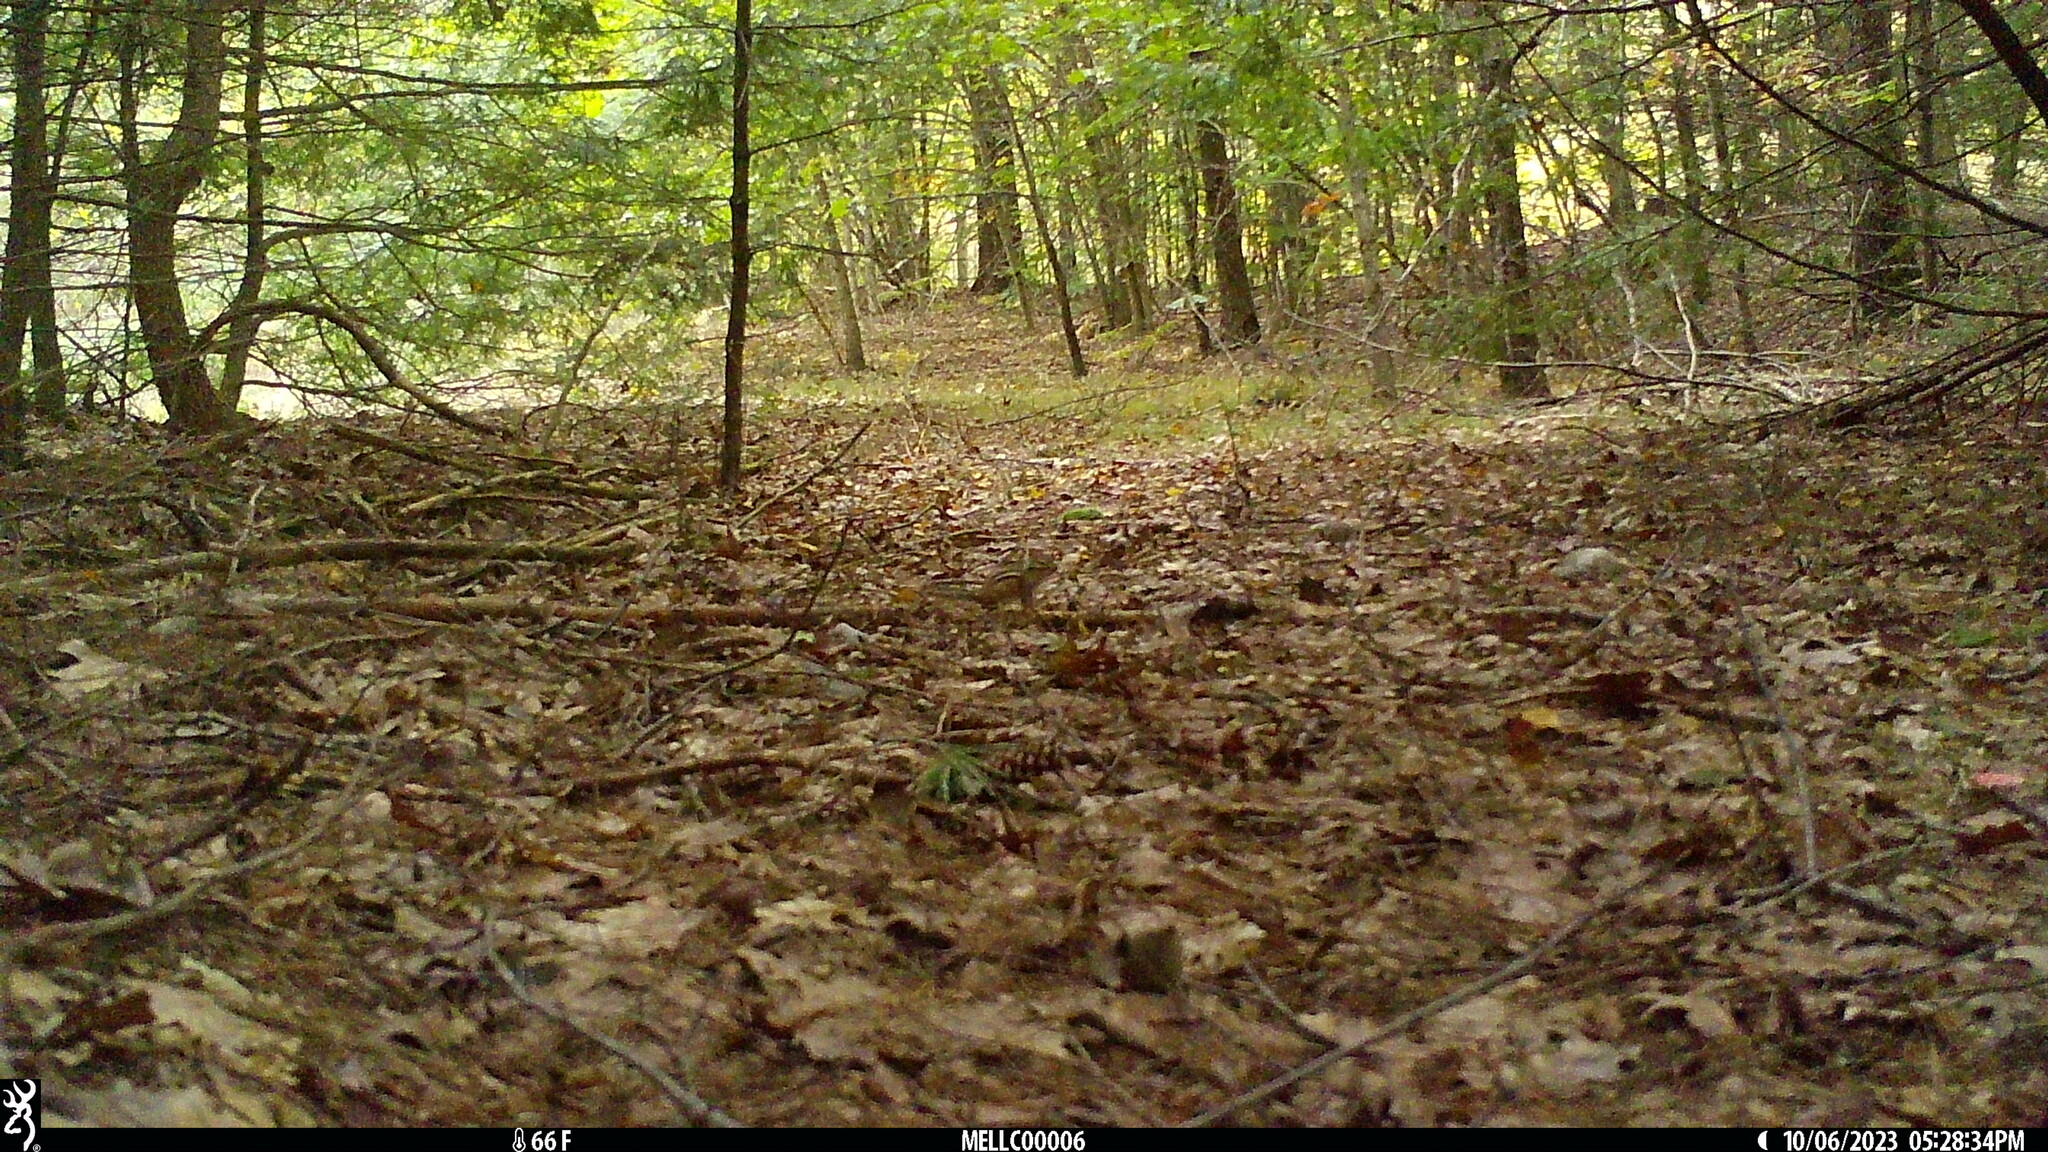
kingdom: Animalia
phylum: Chordata
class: Mammalia
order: Rodentia
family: Sciuridae
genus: Tamias
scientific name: Tamias striatus
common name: Eastern chipmunk
